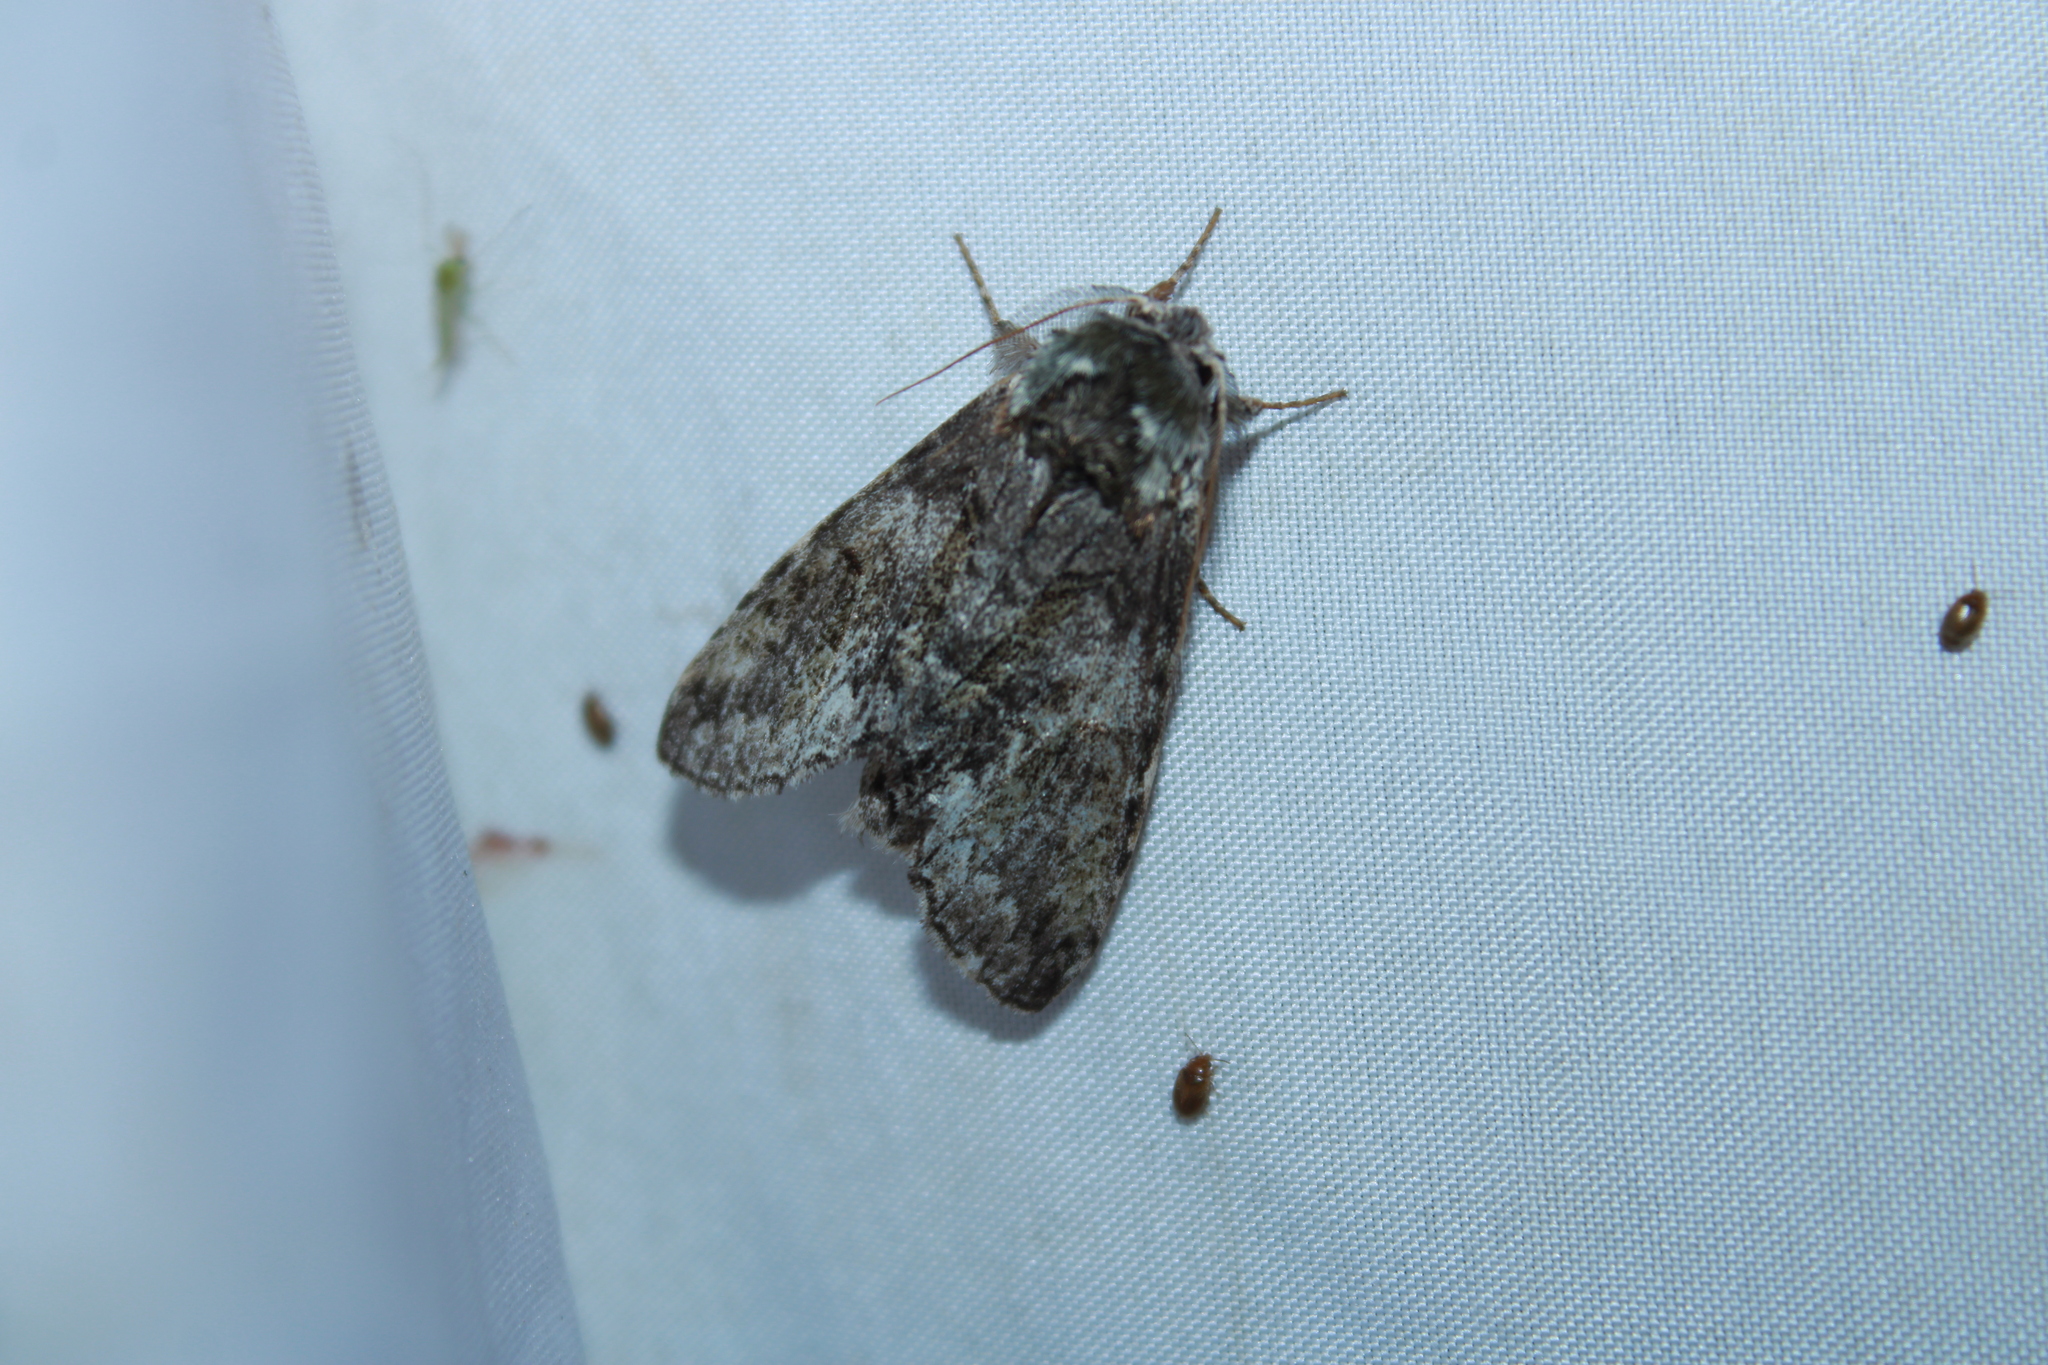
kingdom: Animalia
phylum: Arthropoda
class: Insecta
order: Lepidoptera
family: Notodontidae
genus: Macrurocampa
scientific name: Macrurocampa marthesia
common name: Mottled prominent
